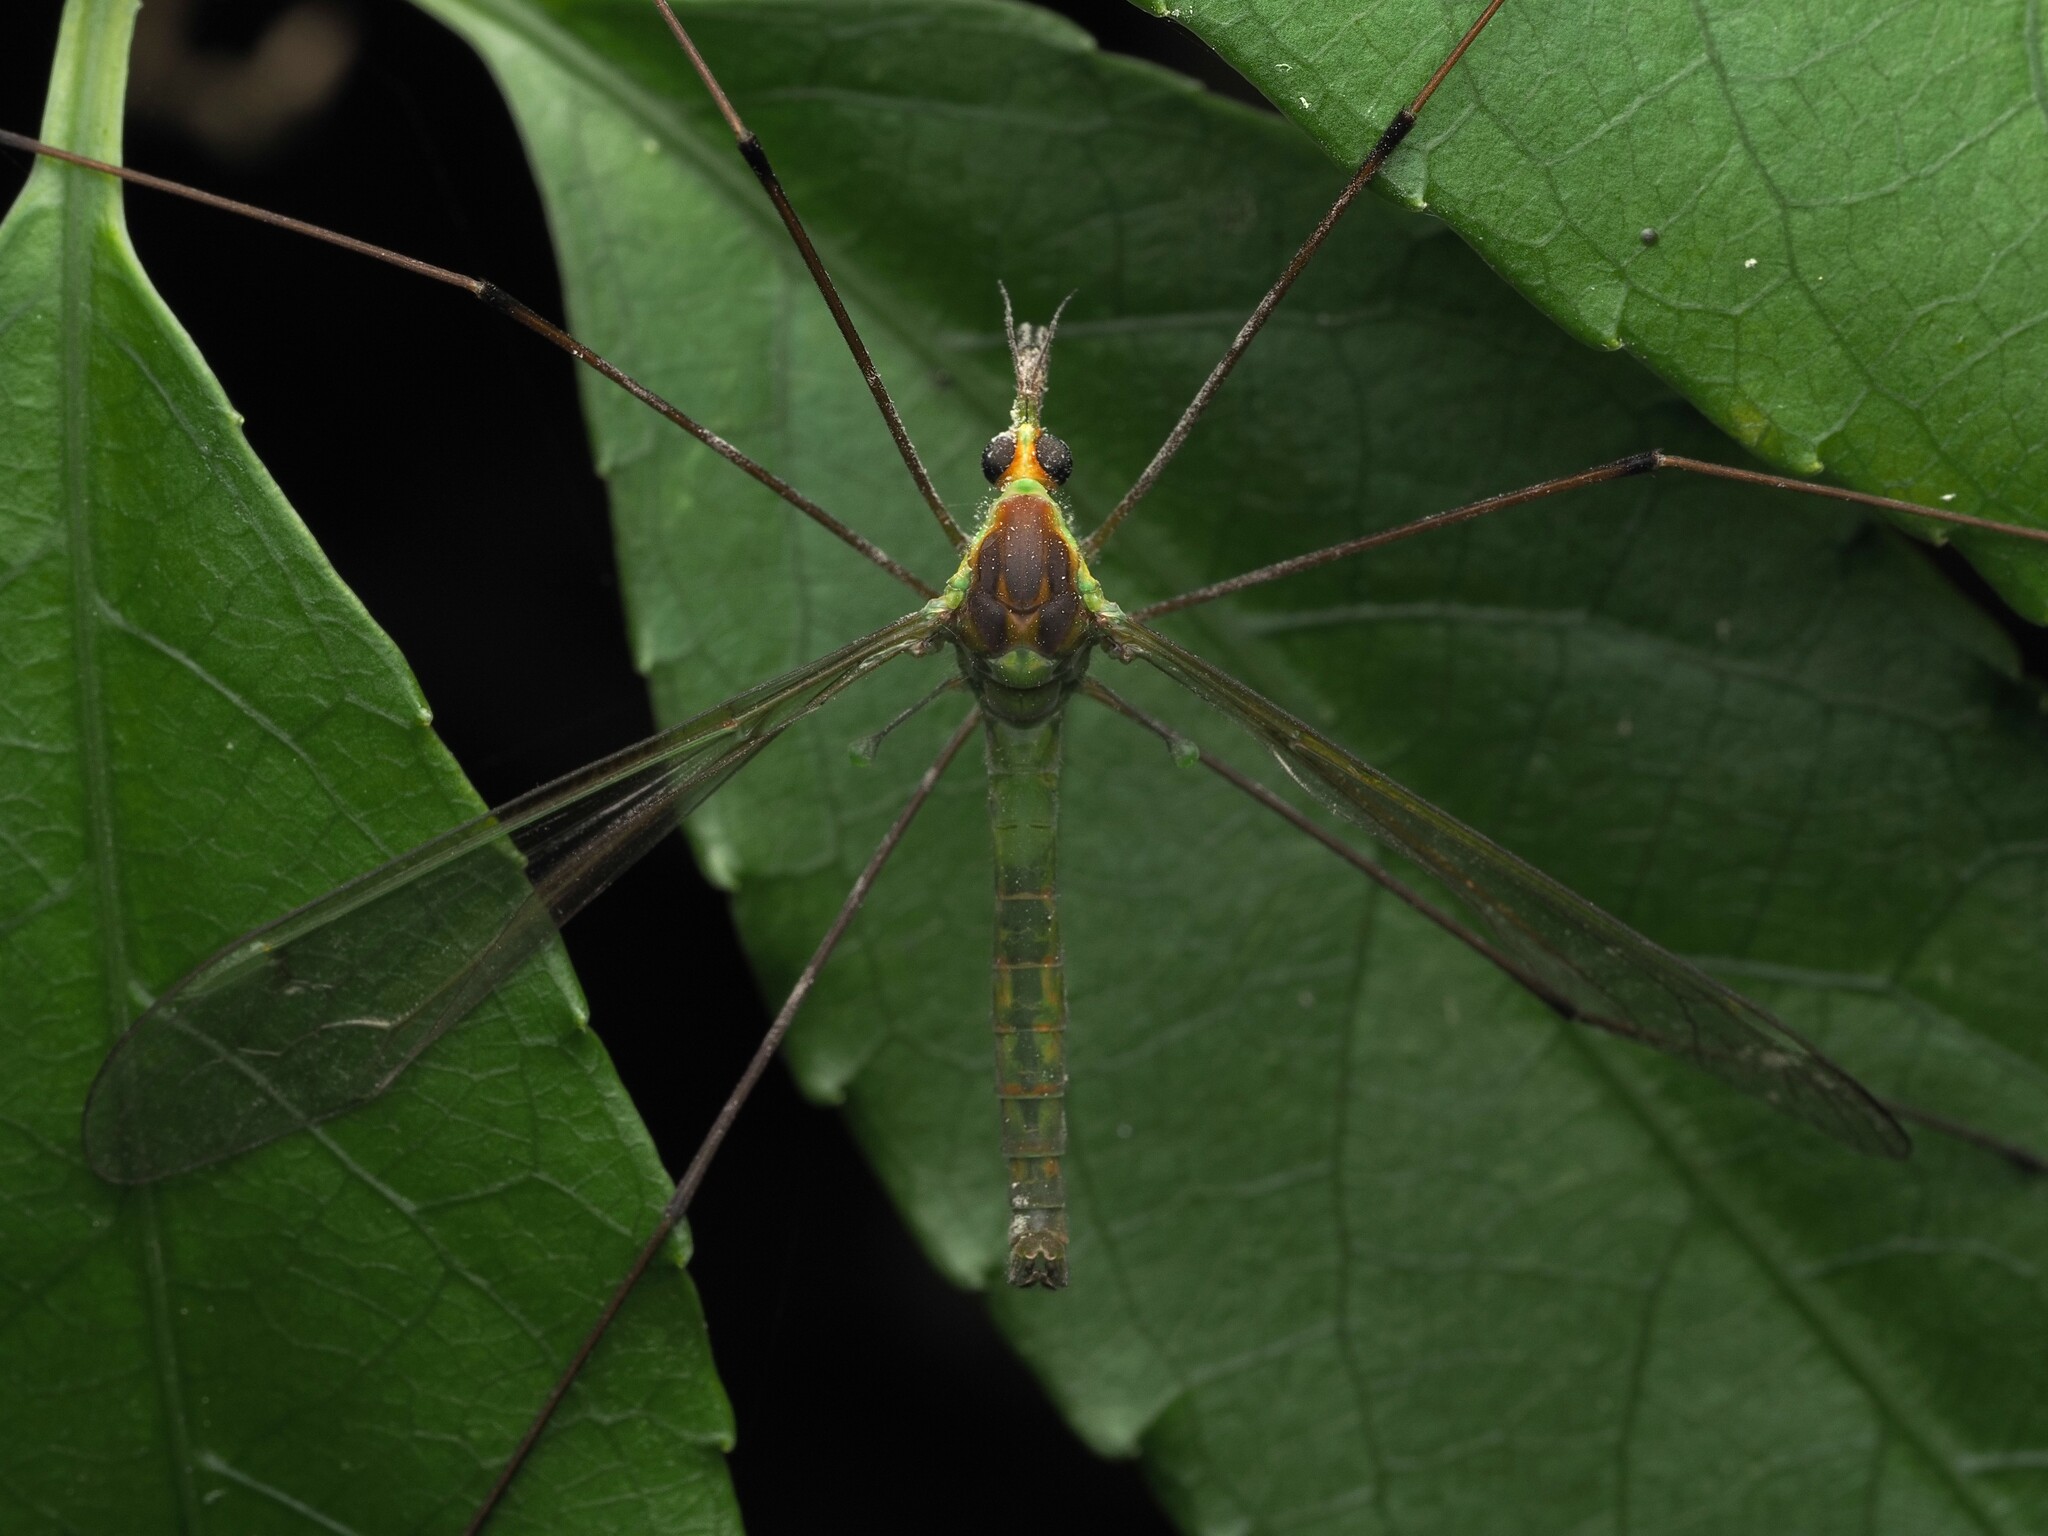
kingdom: Animalia
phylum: Arthropoda
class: Insecta
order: Diptera
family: Tipulidae
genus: Leptotarsus
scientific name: Leptotarsus albistigma
